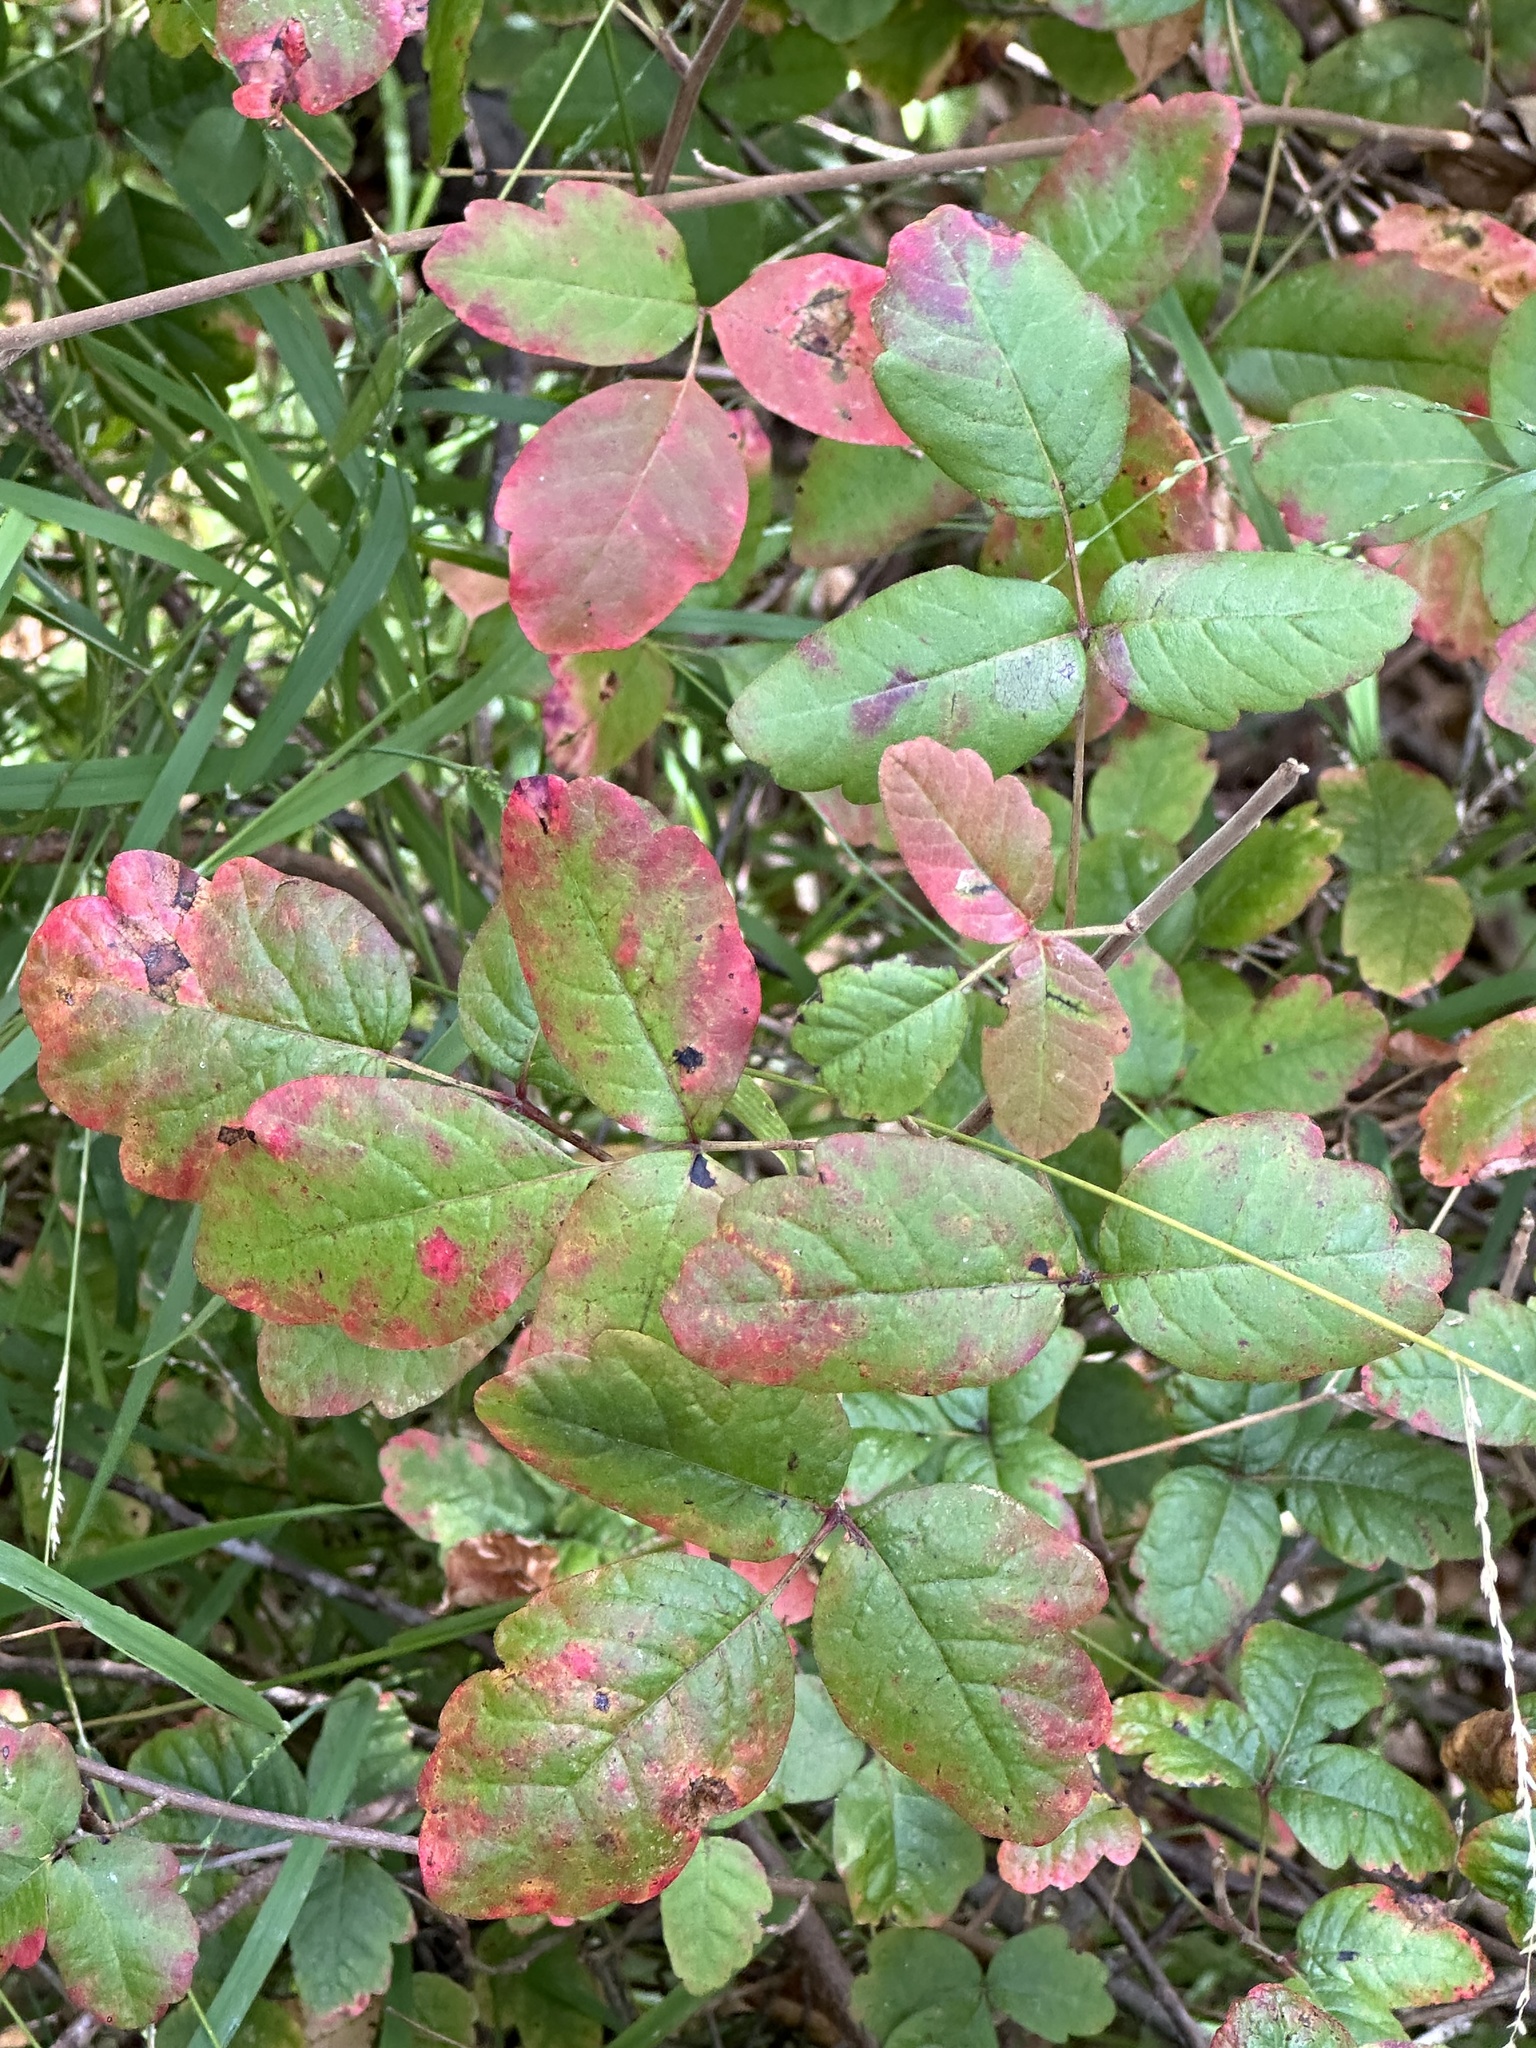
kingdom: Plantae
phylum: Tracheophyta
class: Magnoliopsida
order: Sapindales
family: Anacardiaceae
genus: Toxicodendron
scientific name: Toxicodendron diversilobum
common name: Pacific poison-oak
